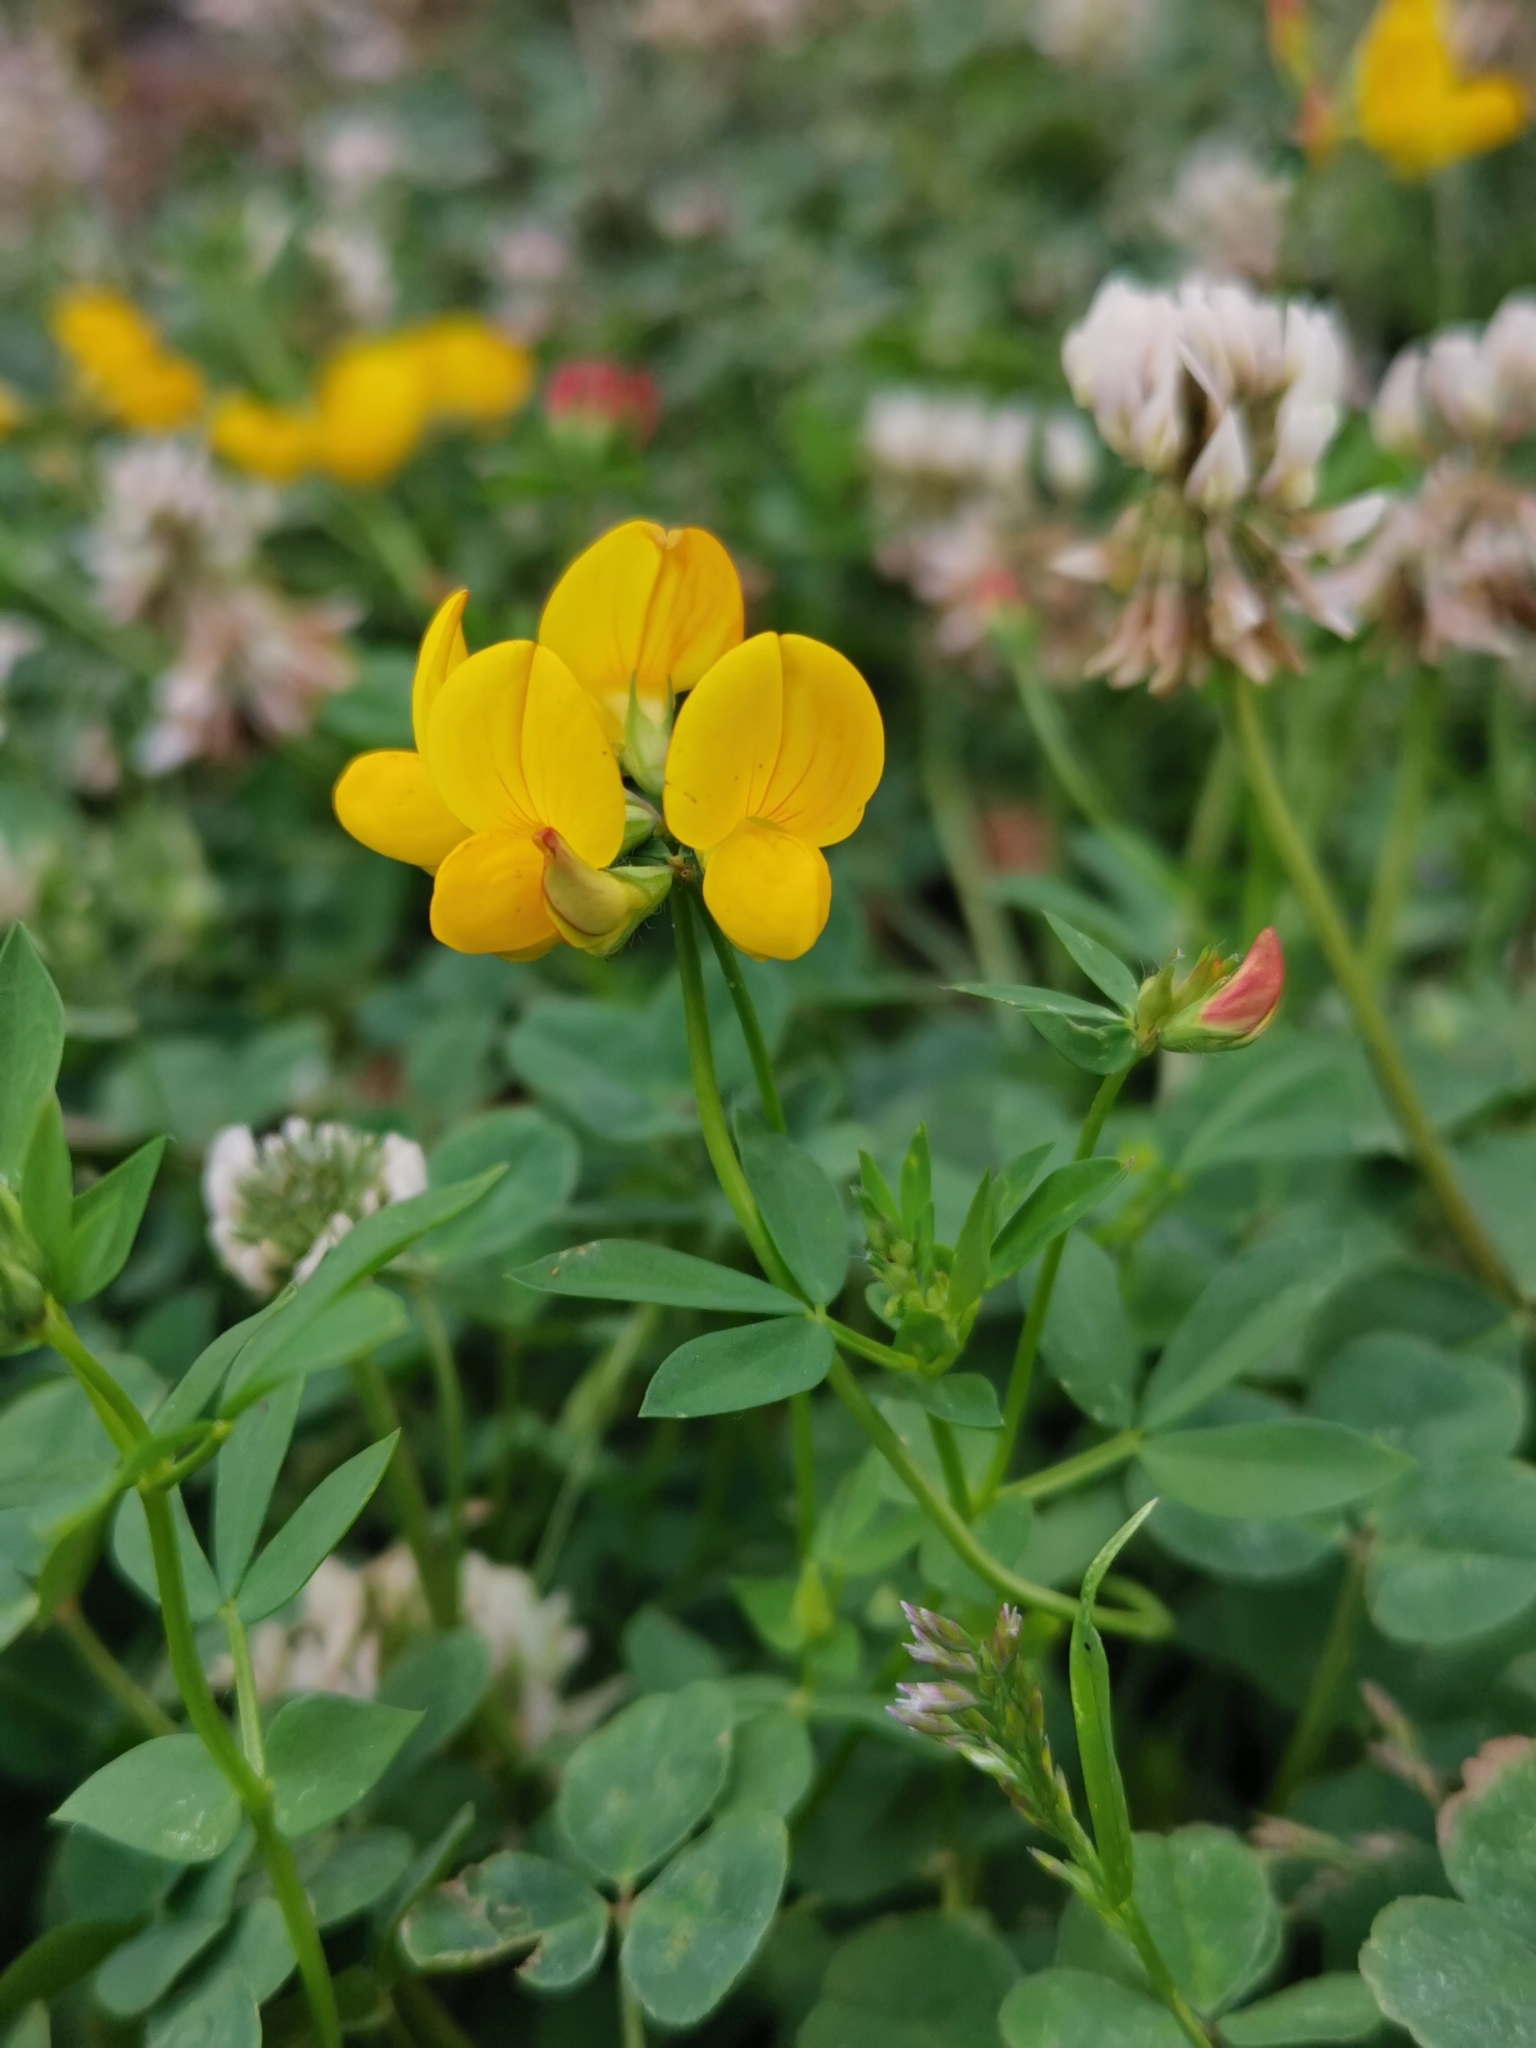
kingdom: Plantae
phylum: Tracheophyta
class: Magnoliopsida
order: Fabales
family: Fabaceae
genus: Lotus
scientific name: Lotus corniculatus
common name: Common bird's-foot-trefoil
